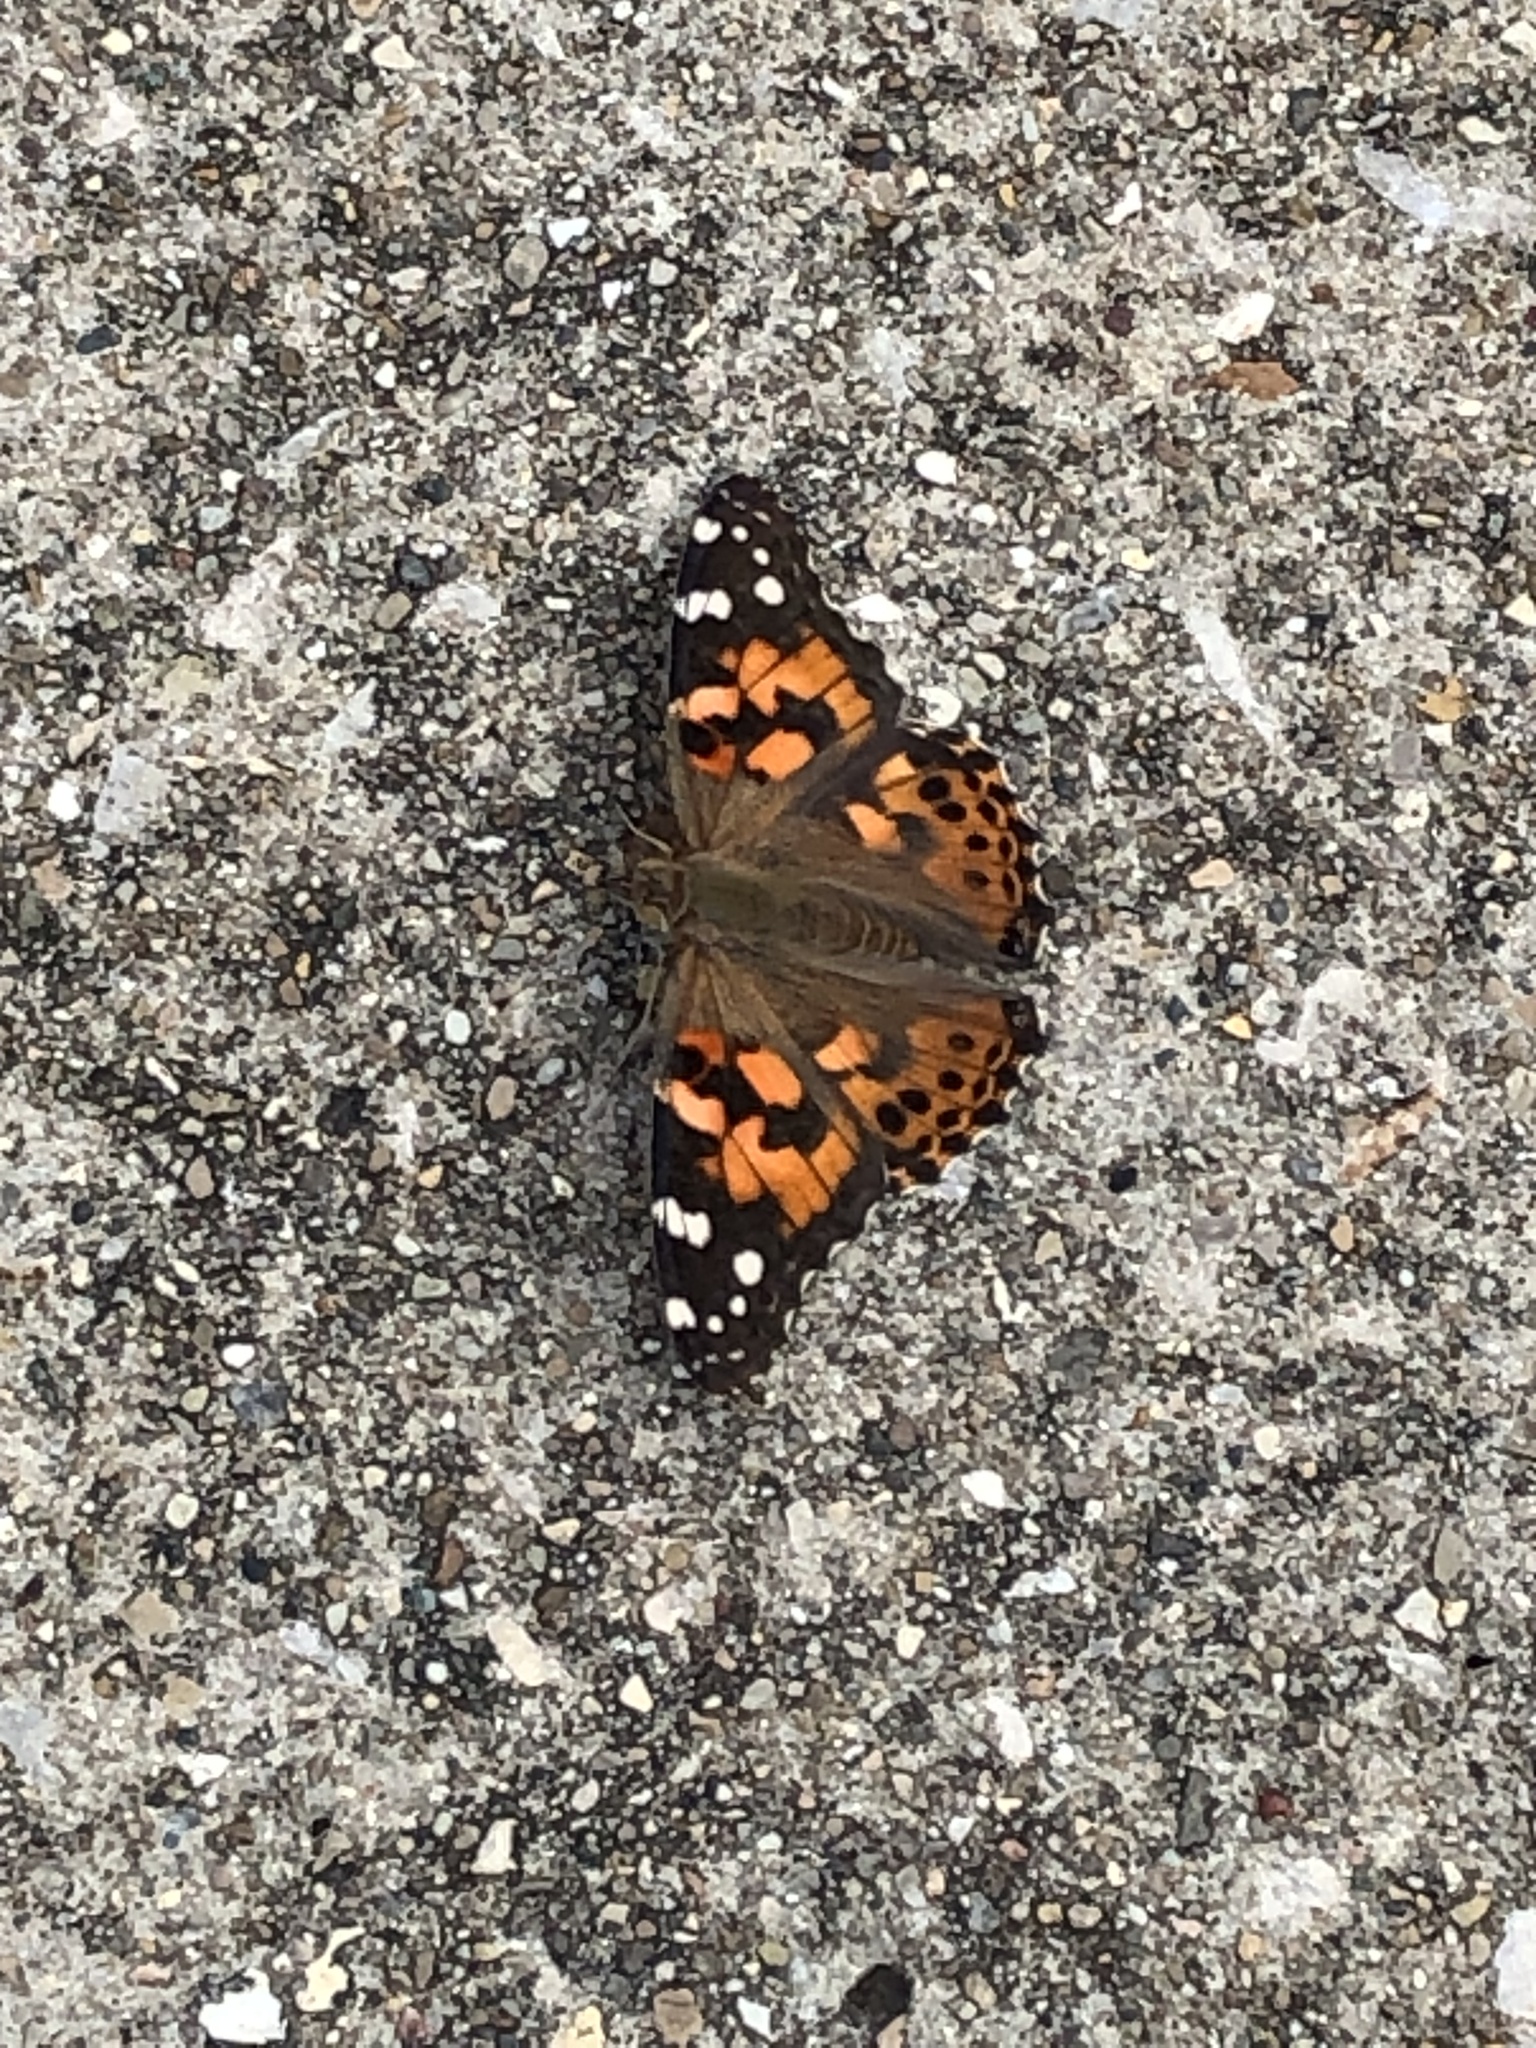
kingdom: Animalia
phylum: Arthropoda
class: Insecta
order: Lepidoptera
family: Nymphalidae
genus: Vanessa
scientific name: Vanessa cardui
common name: Painted lady
